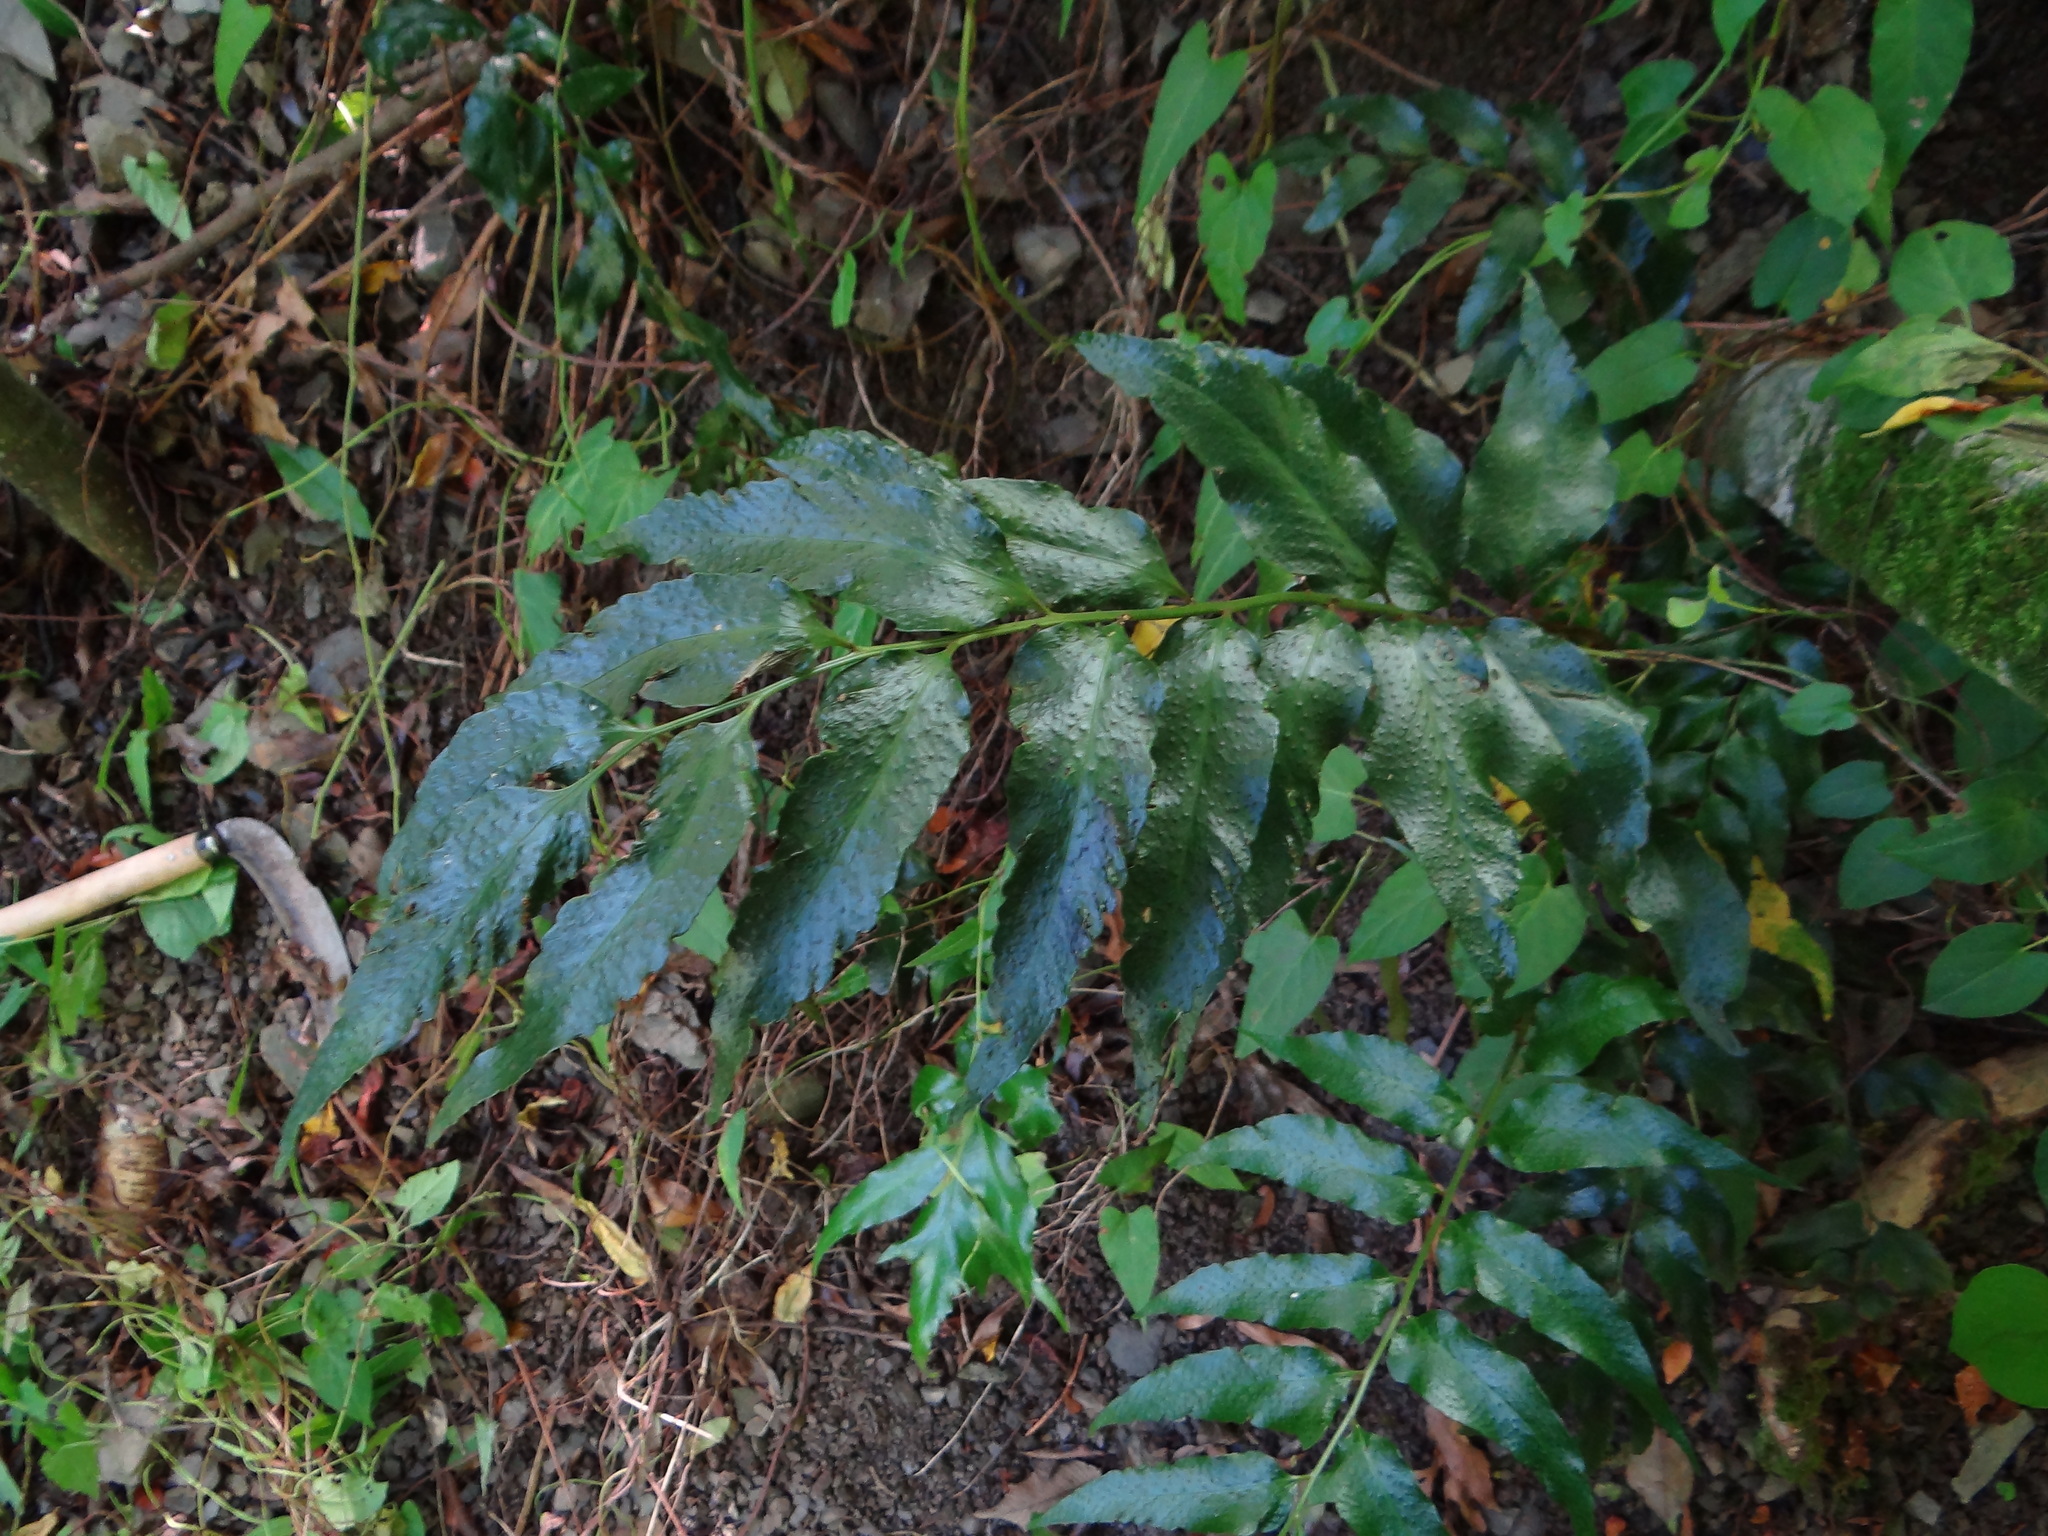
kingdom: Plantae
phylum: Tracheophyta
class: Polypodiopsida
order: Polypodiales
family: Dryopteridaceae
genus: Cyrtomium
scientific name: Cyrtomium devexiscapulae
